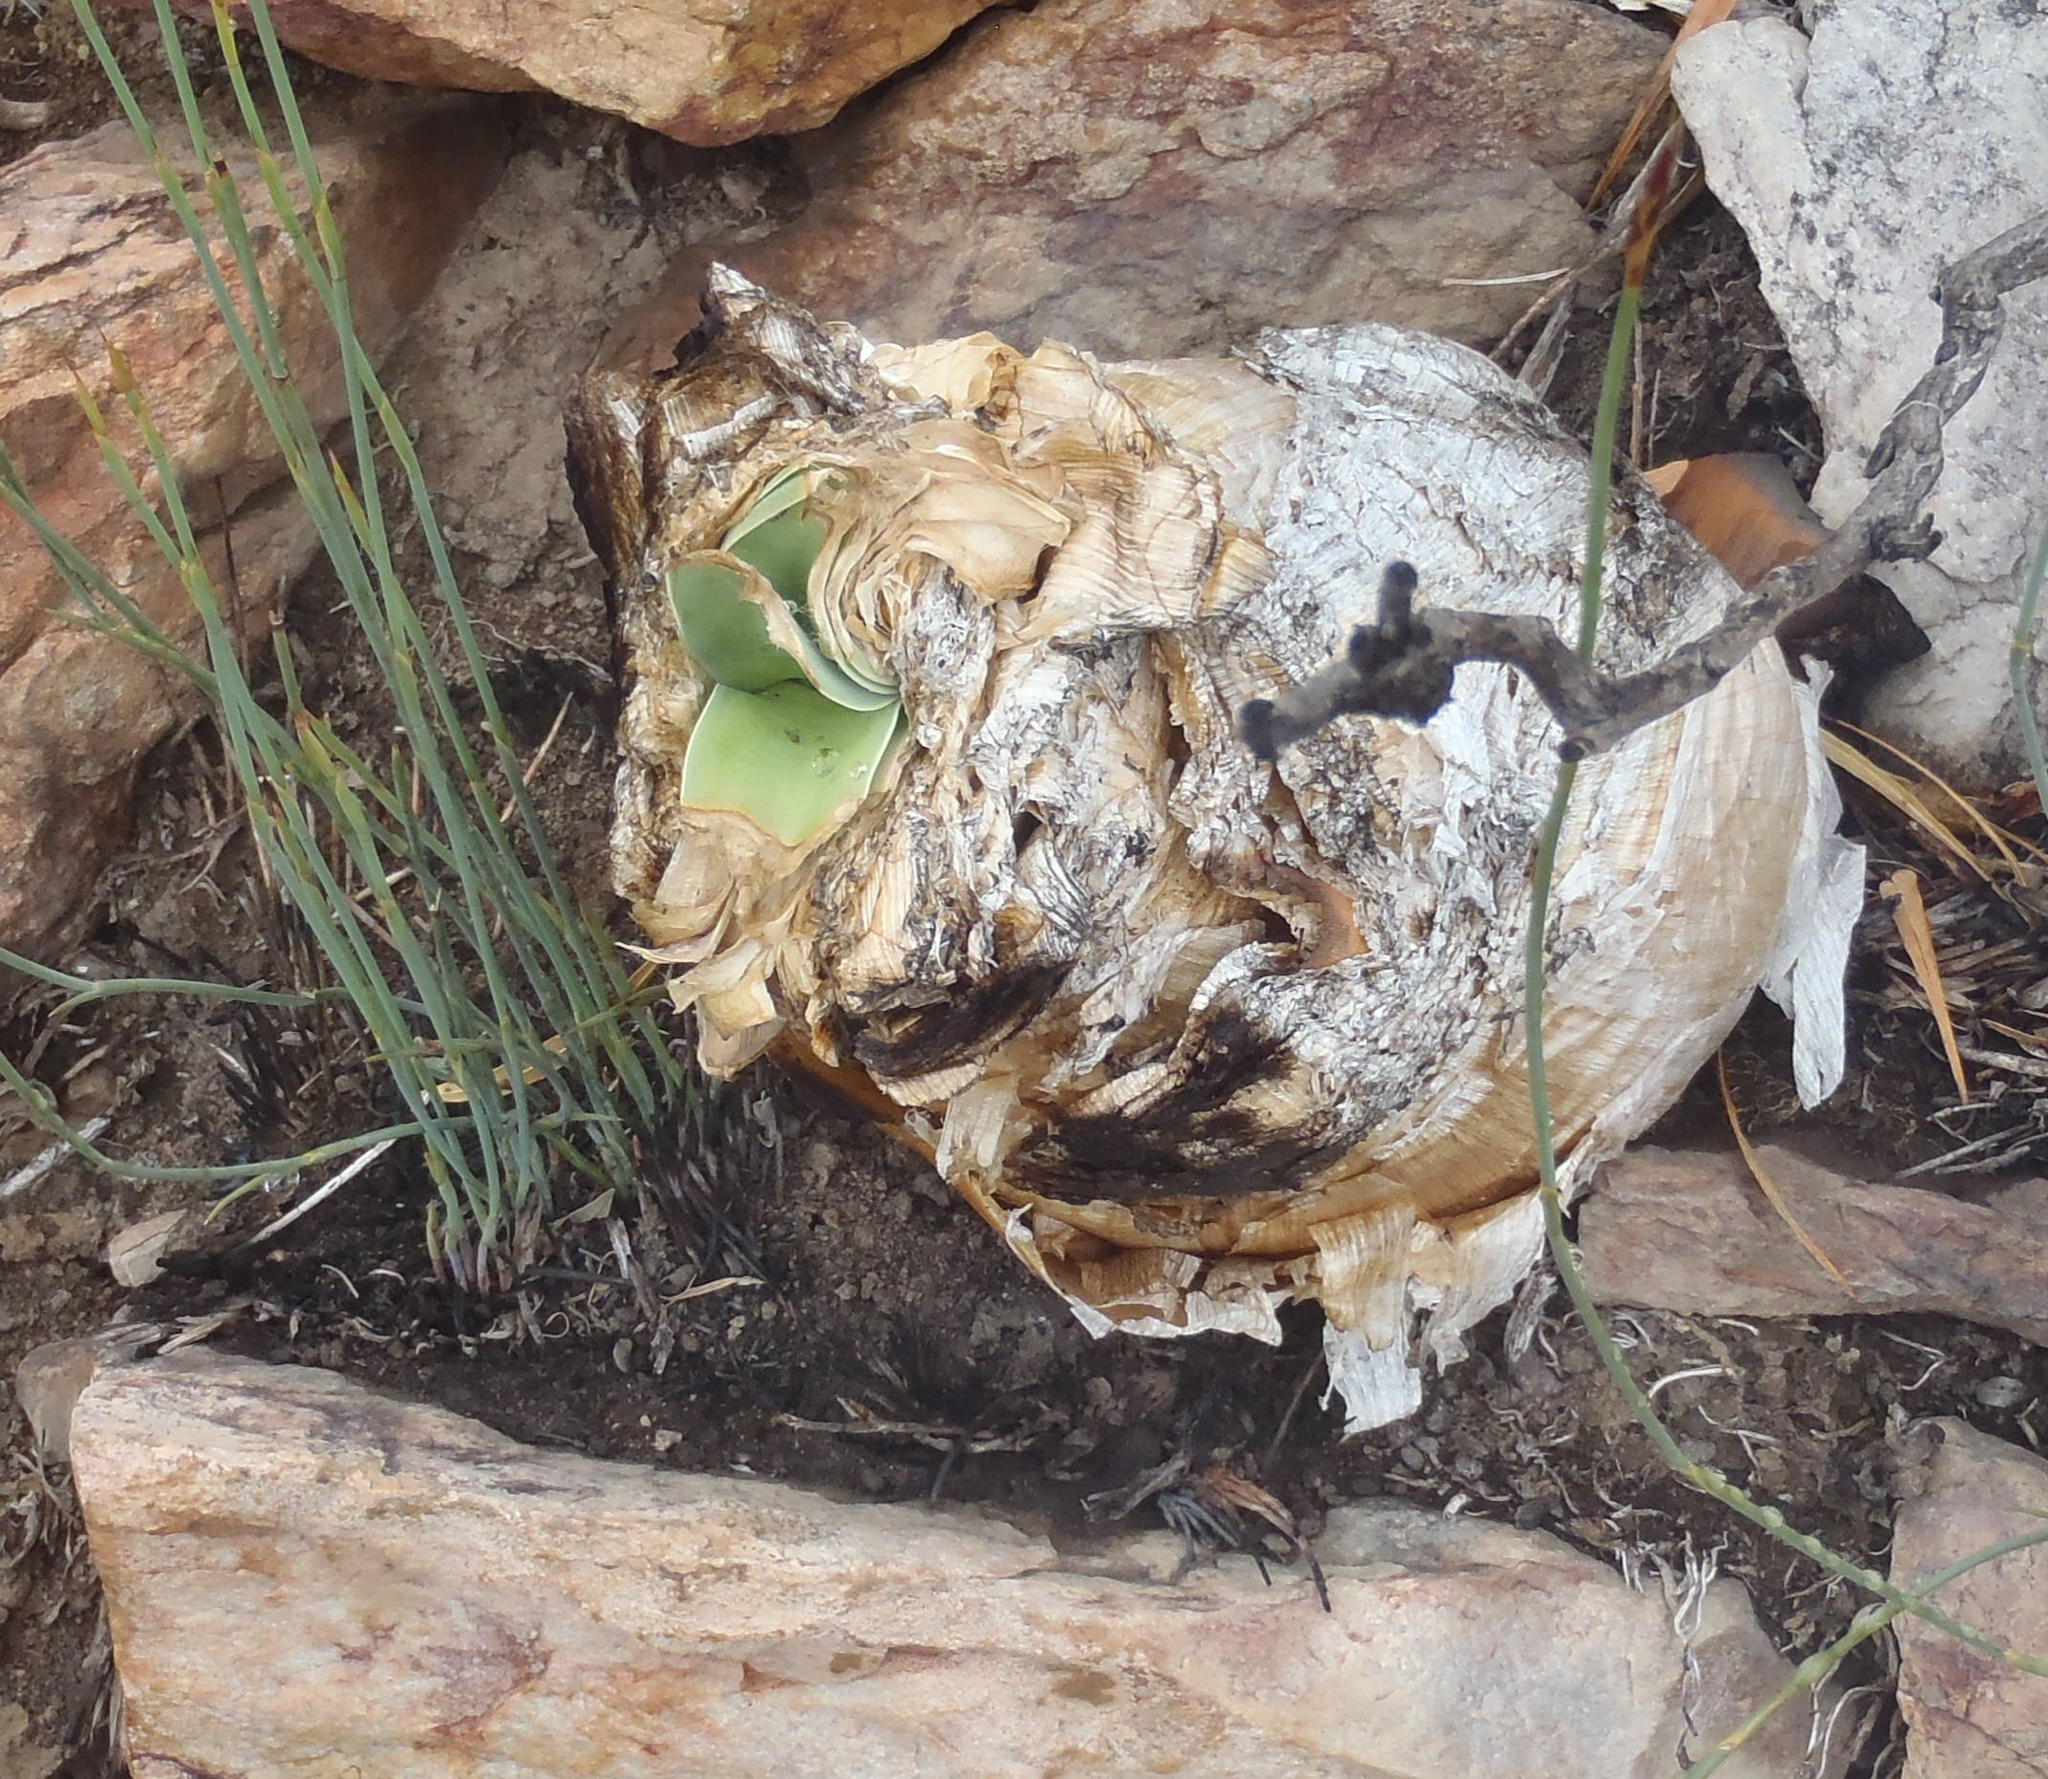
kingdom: Plantae
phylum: Tracheophyta
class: Liliopsida
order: Asparagales
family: Amaryllidaceae
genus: Boophone
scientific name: Boophone disticha
